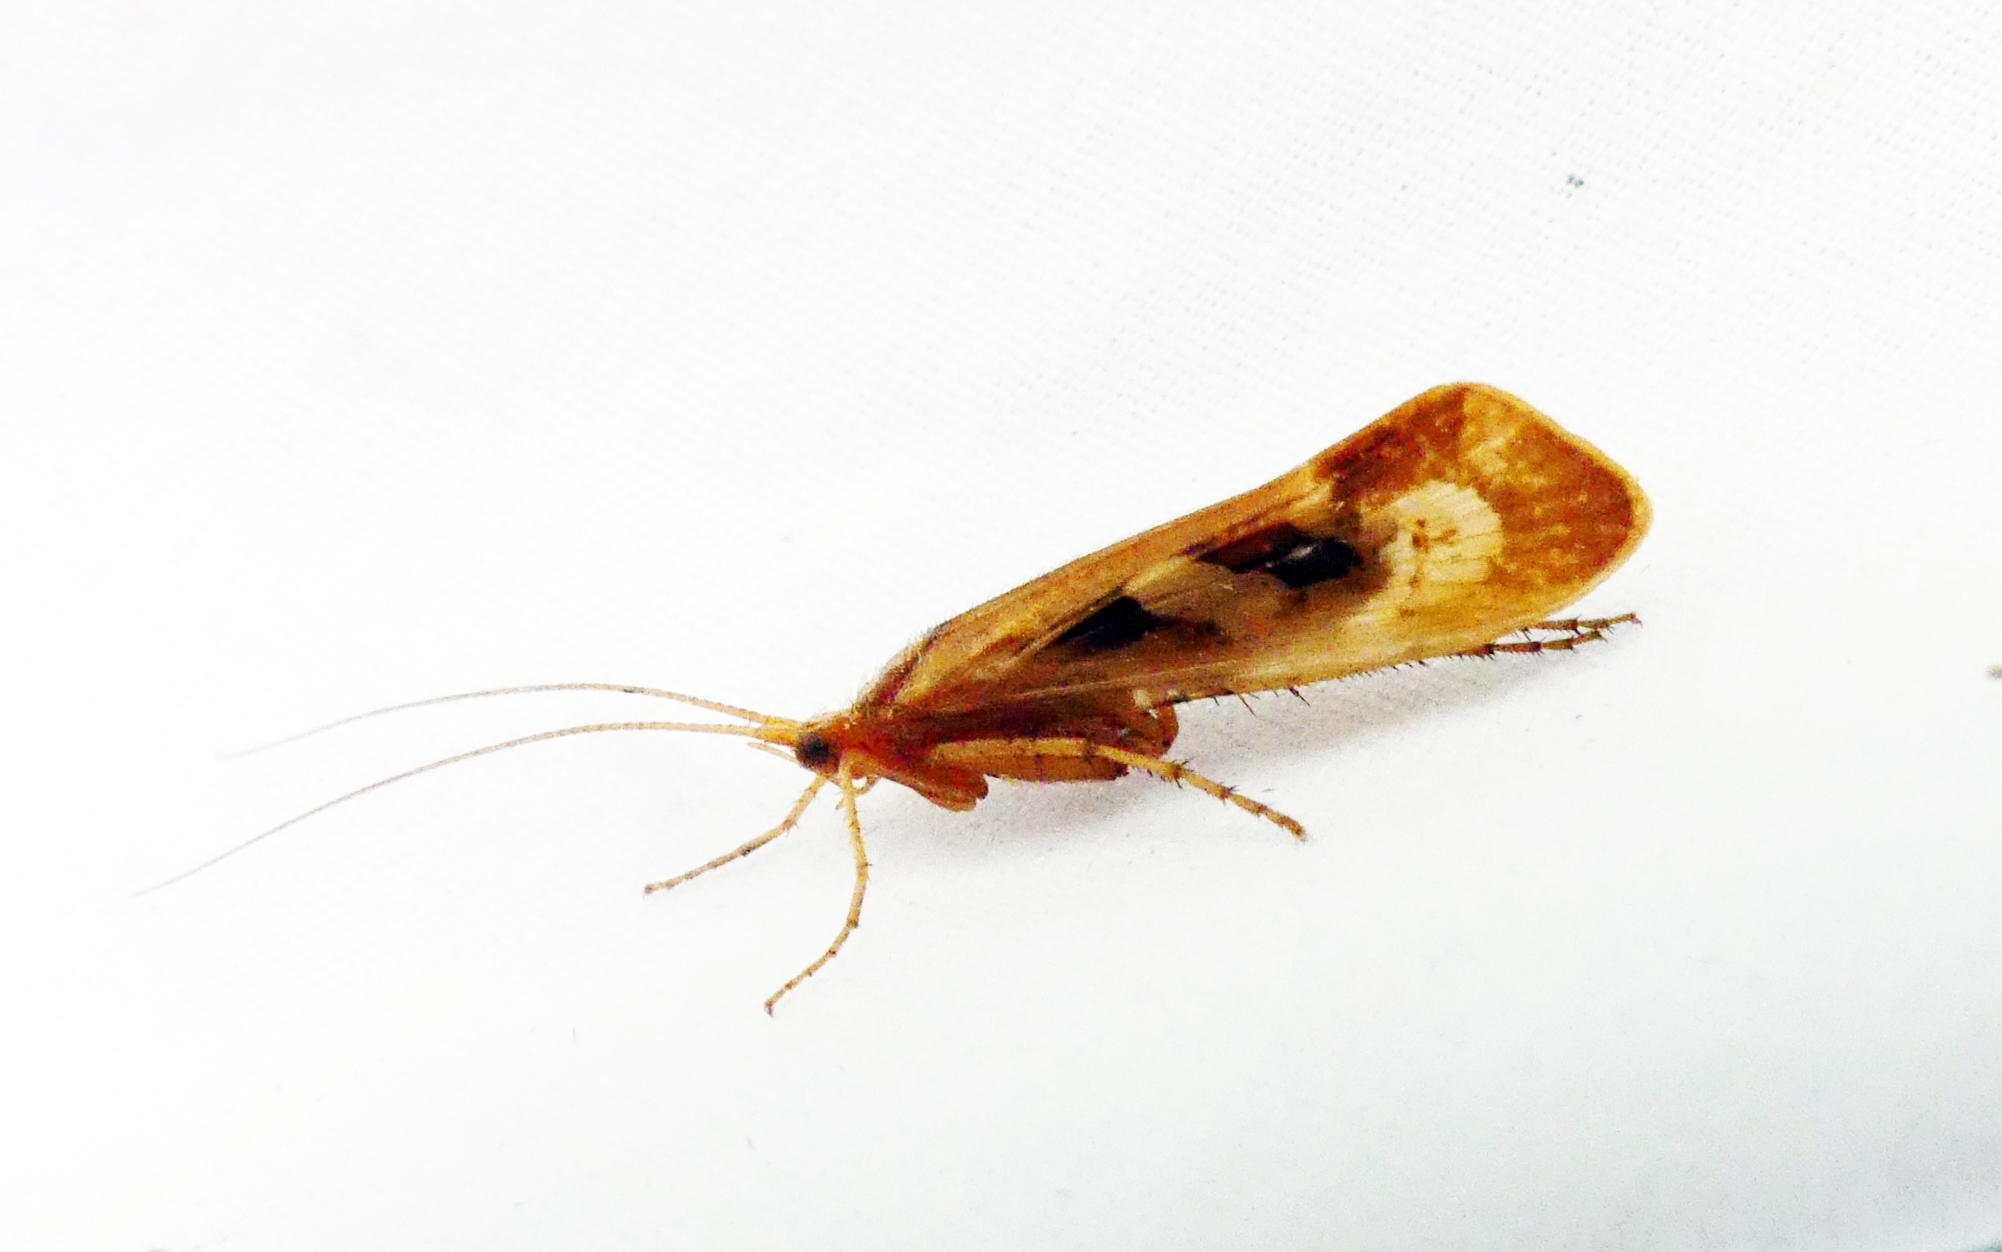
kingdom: Animalia
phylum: Arthropoda
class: Insecta
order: Trichoptera
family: Limnephilidae
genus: Limnephilus
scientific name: Limnephilus rhombicus
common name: Diamond northern caddisfly
